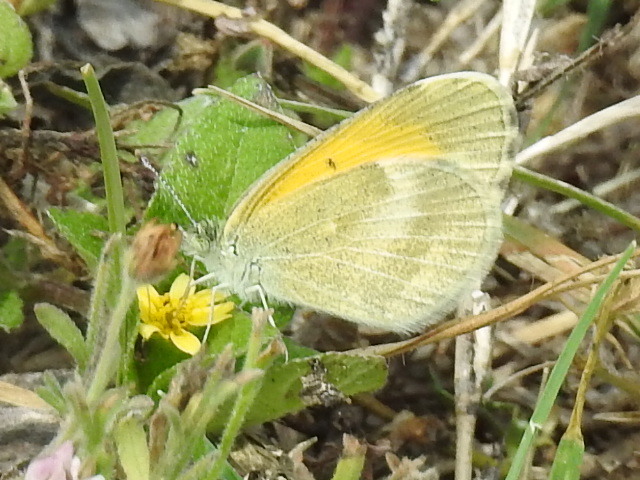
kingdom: Animalia
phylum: Arthropoda
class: Insecta
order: Lepidoptera
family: Pieridae
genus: Nathalis
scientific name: Nathalis iole
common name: Dainty sulphur
